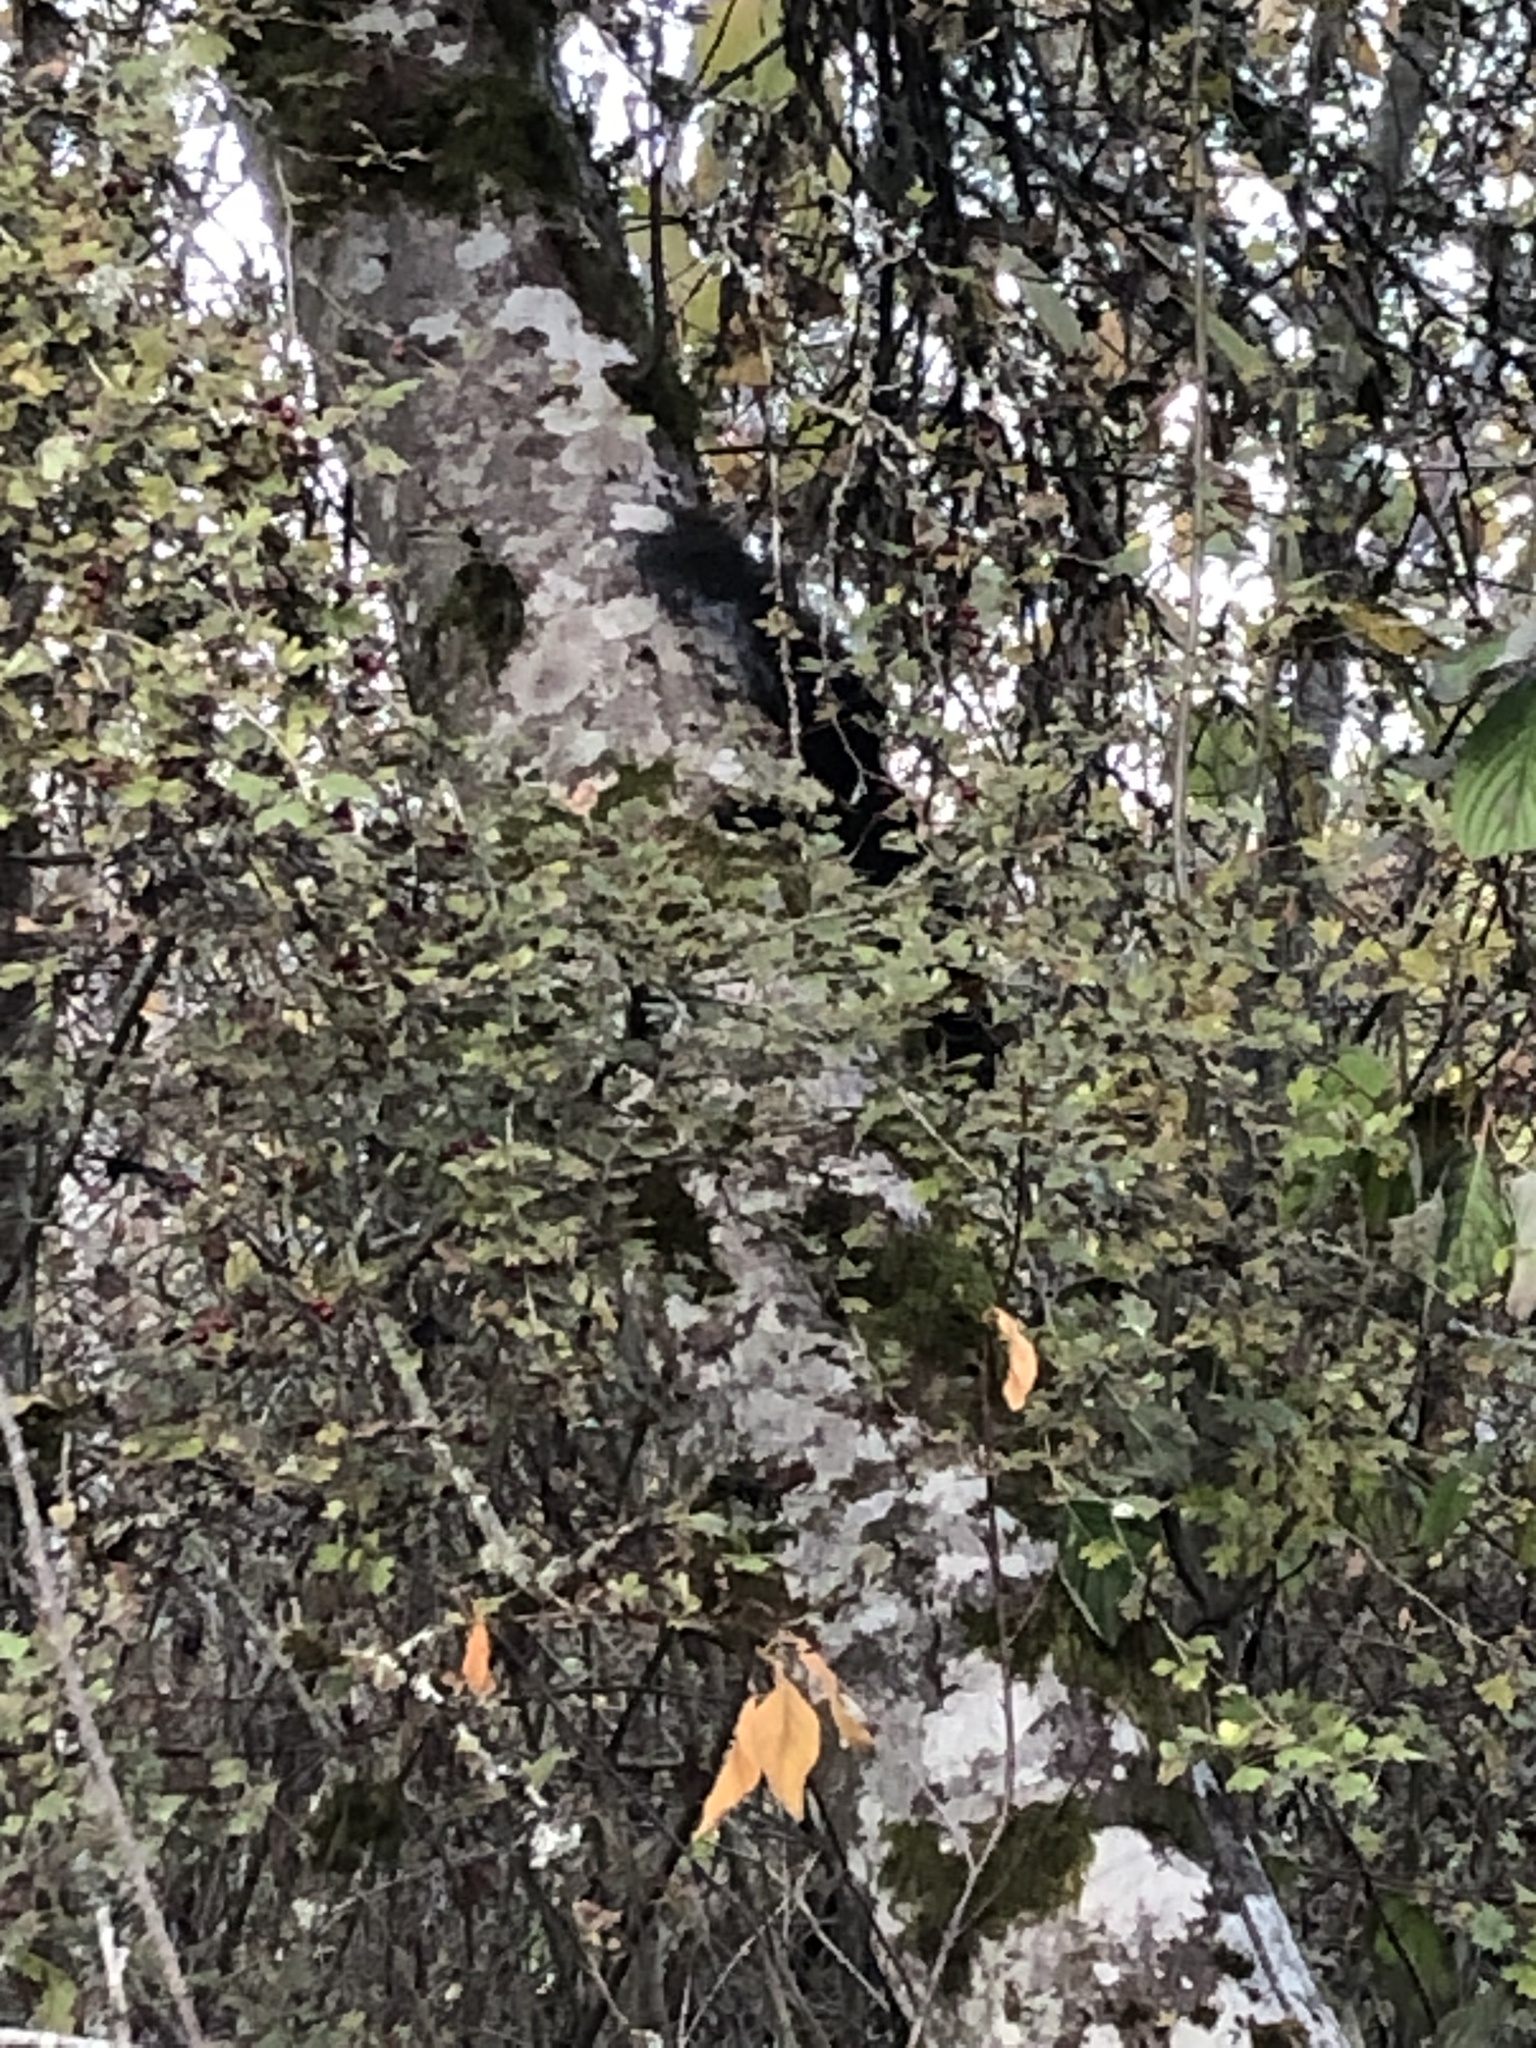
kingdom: Animalia
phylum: Chordata
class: Mammalia
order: Rodentia
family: Sciuridae
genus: Sciurus
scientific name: Sciurus carolinensis
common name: Eastern gray squirrel
